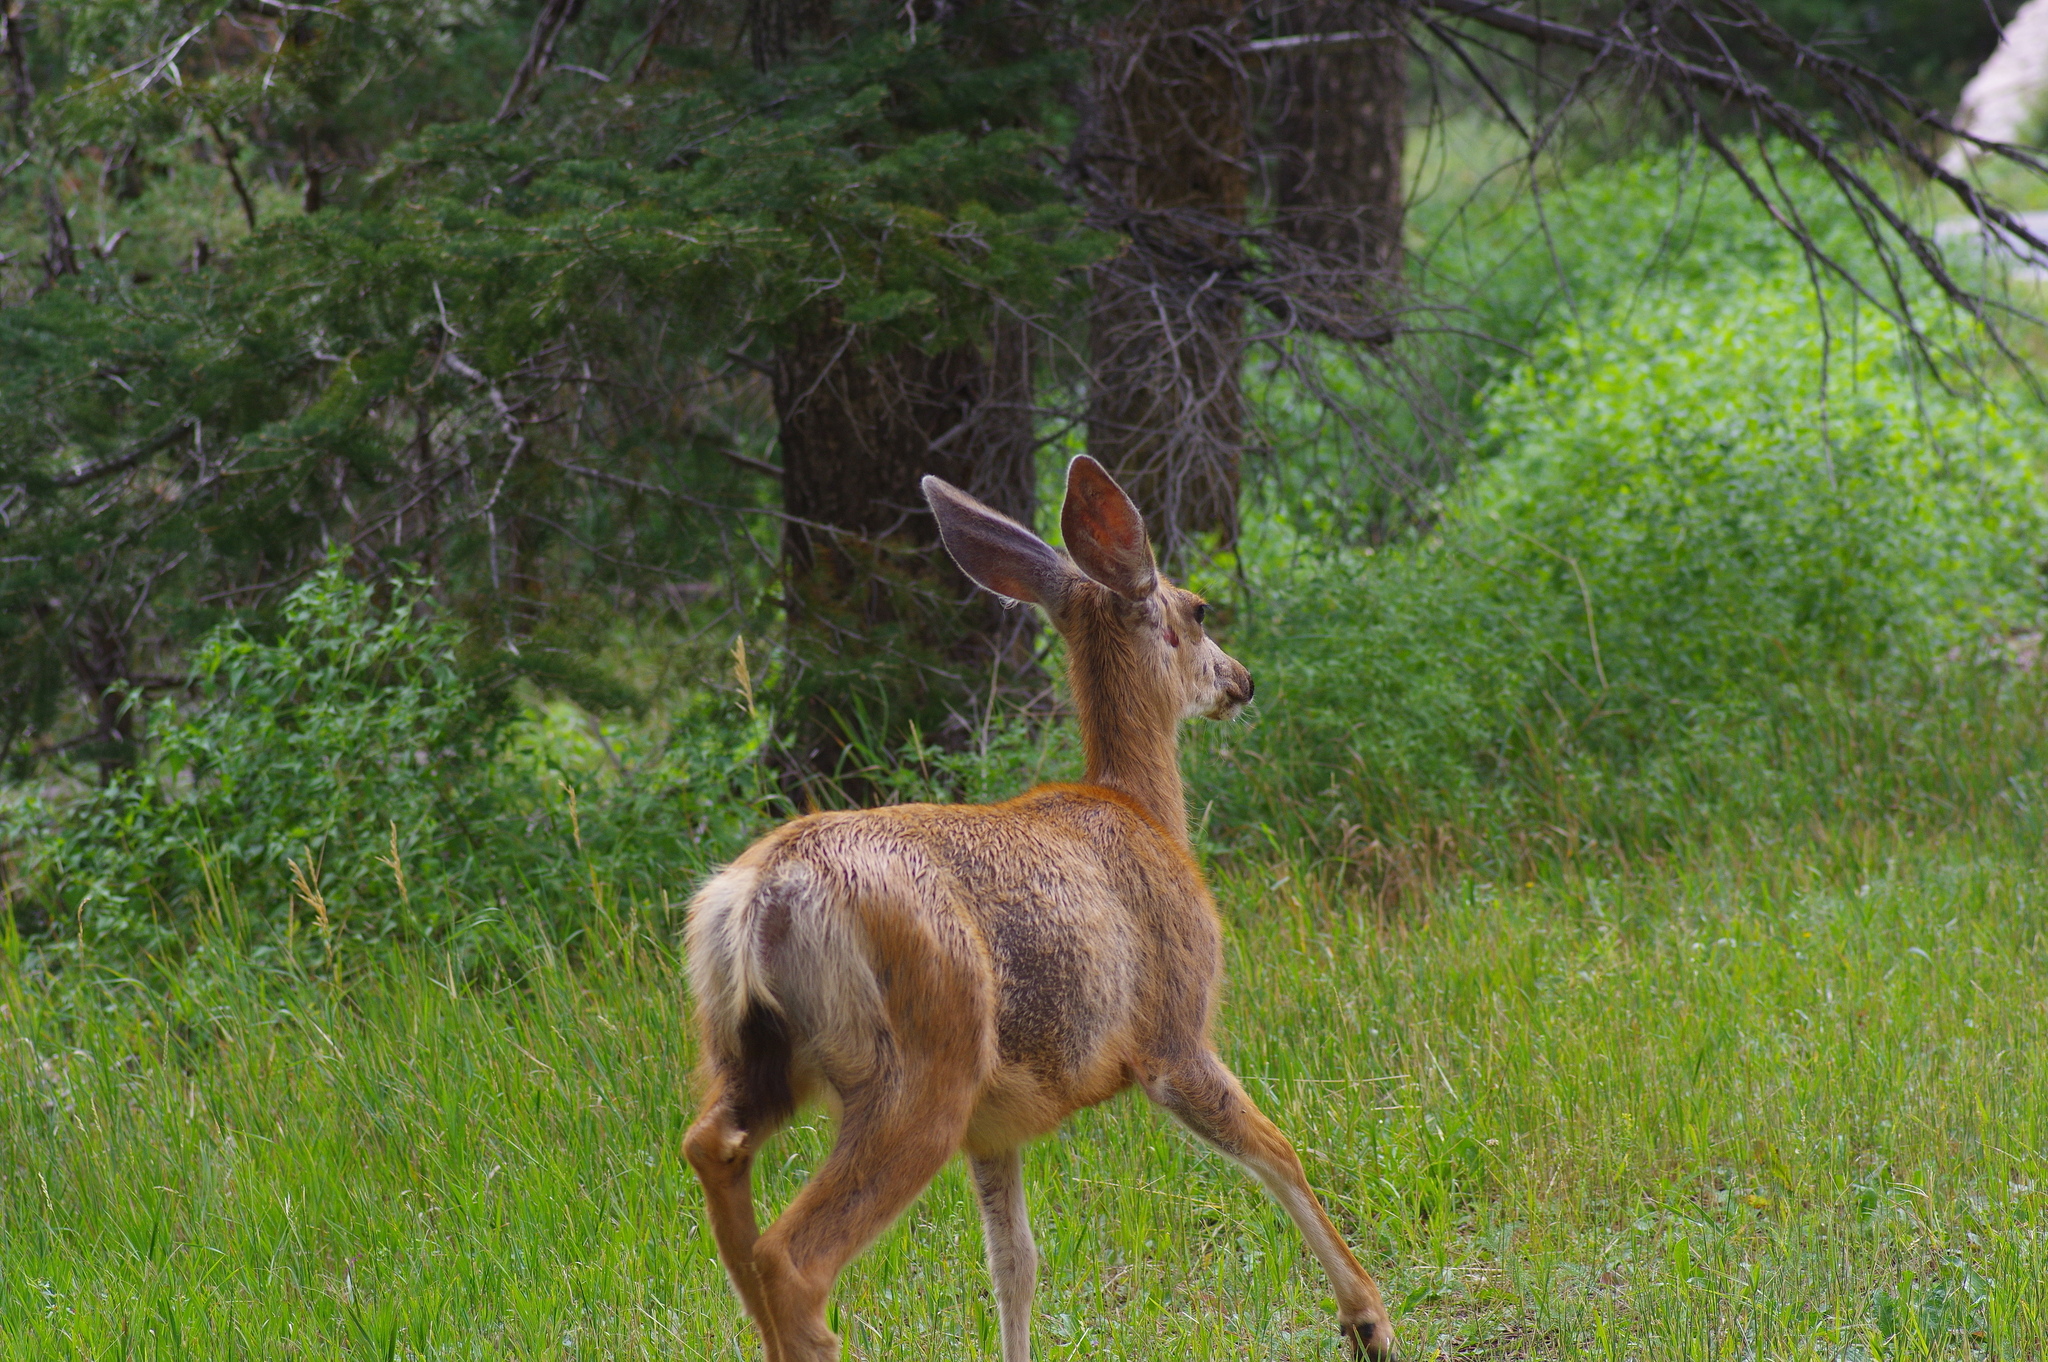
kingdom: Animalia
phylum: Chordata
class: Mammalia
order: Artiodactyla
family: Cervidae
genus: Odocoileus
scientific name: Odocoileus hemionus
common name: Mule deer
